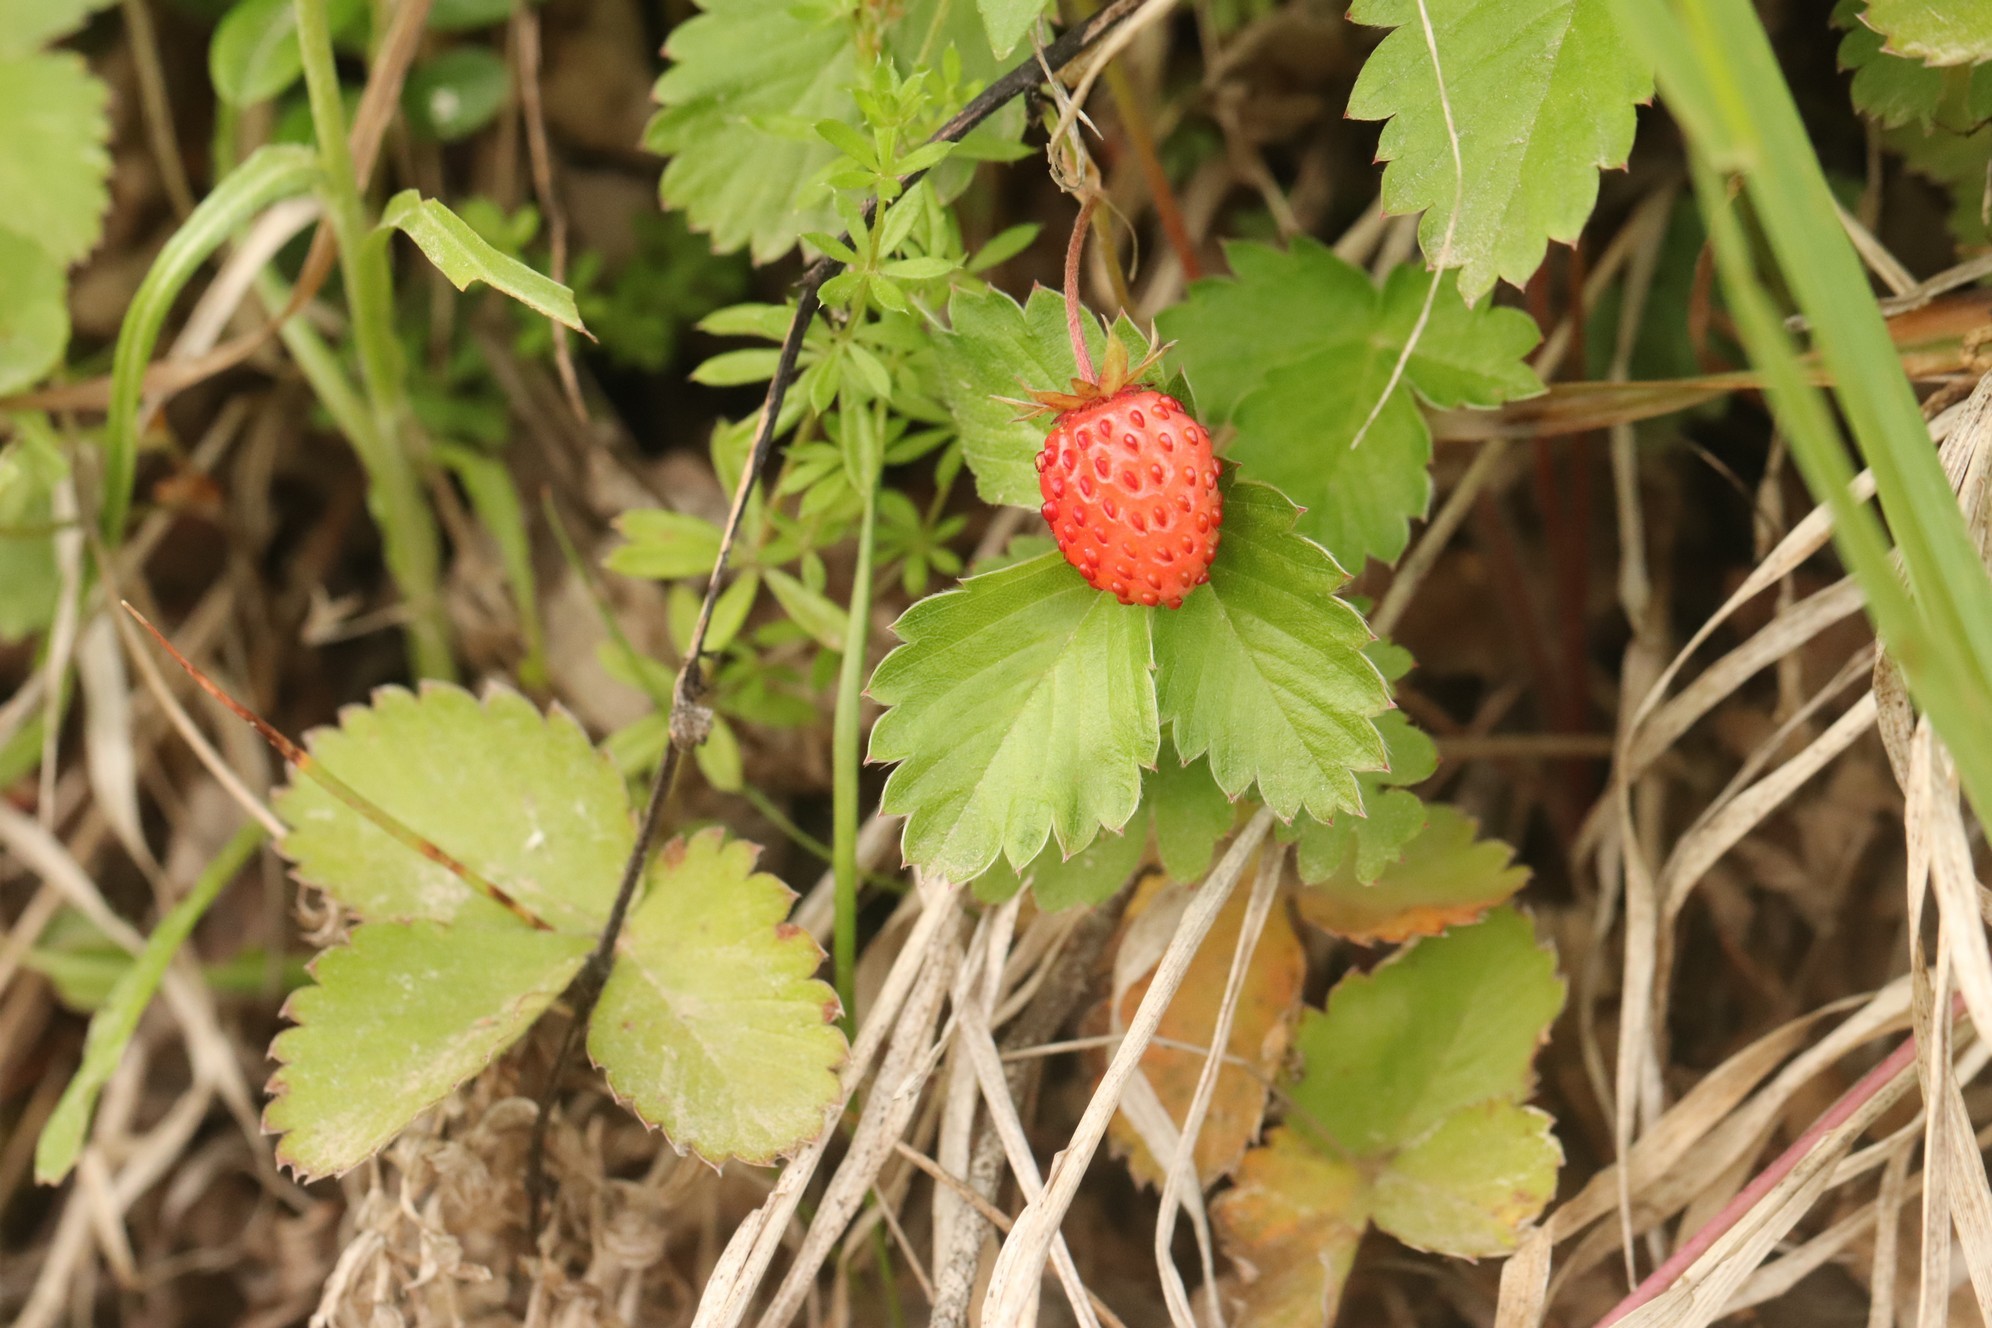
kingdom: Plantae
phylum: Tracheophyta
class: Magnoliopsida
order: Rosales
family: Rosaceae
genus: Fragaria
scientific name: Fragaria vesca
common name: Wild strawberry
